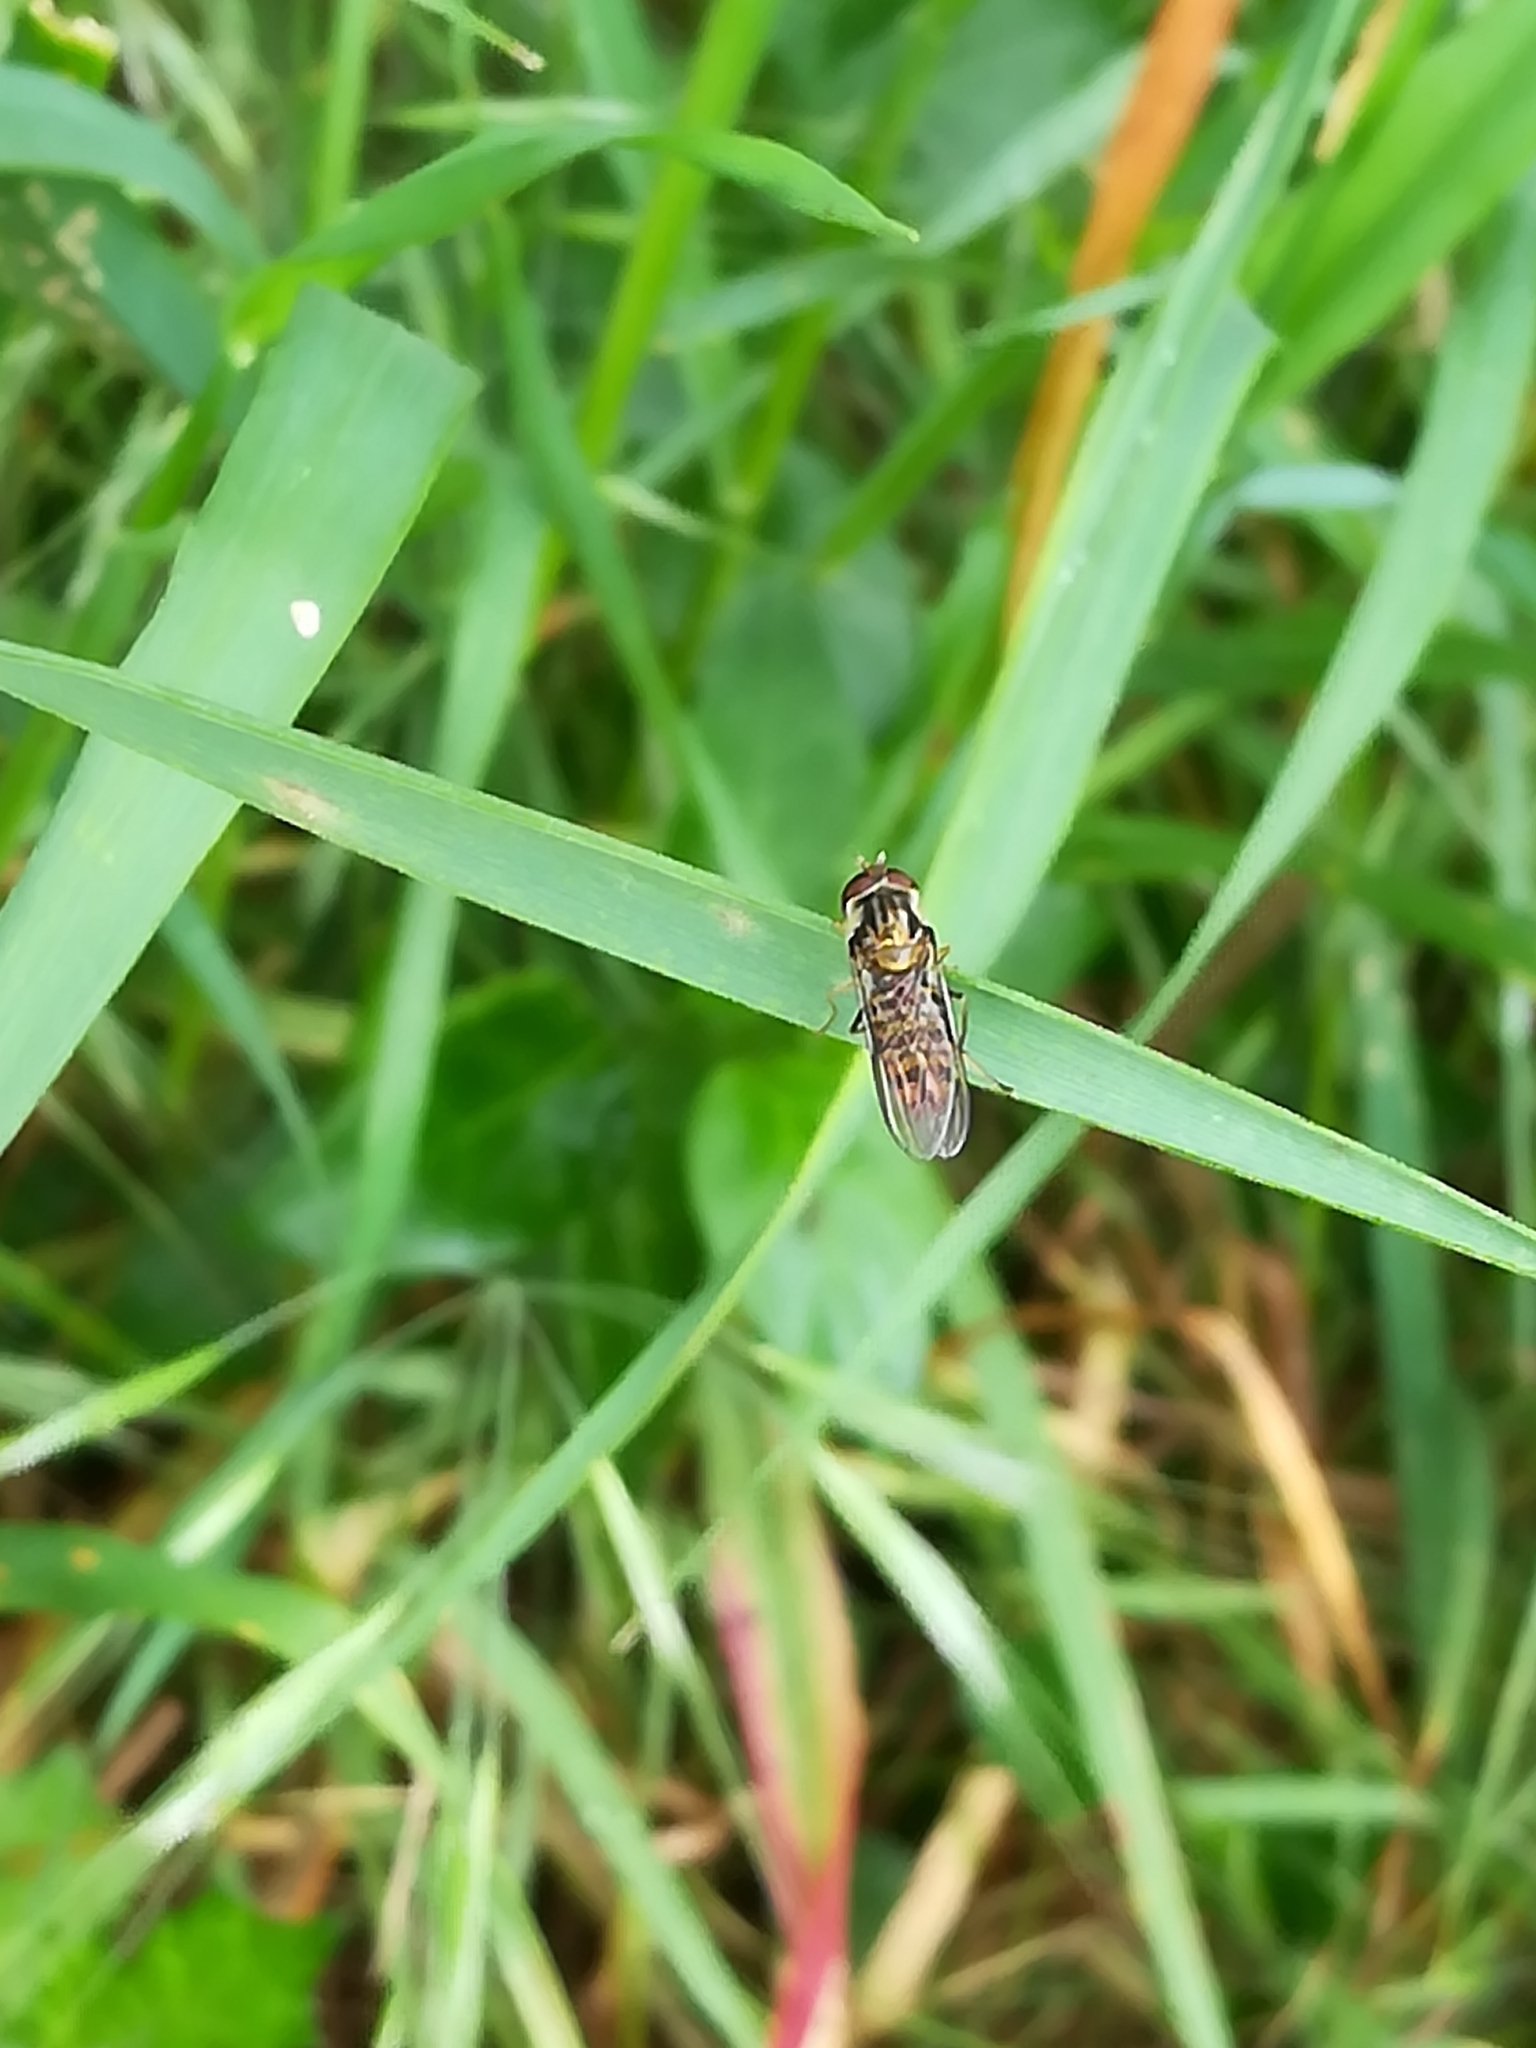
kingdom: Animalia
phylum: Arthropoda
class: Insecta
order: Diptera
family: Syrphidae
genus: Episyrphus
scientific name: Episyrphus balteatus
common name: Marmalade hoverfly
